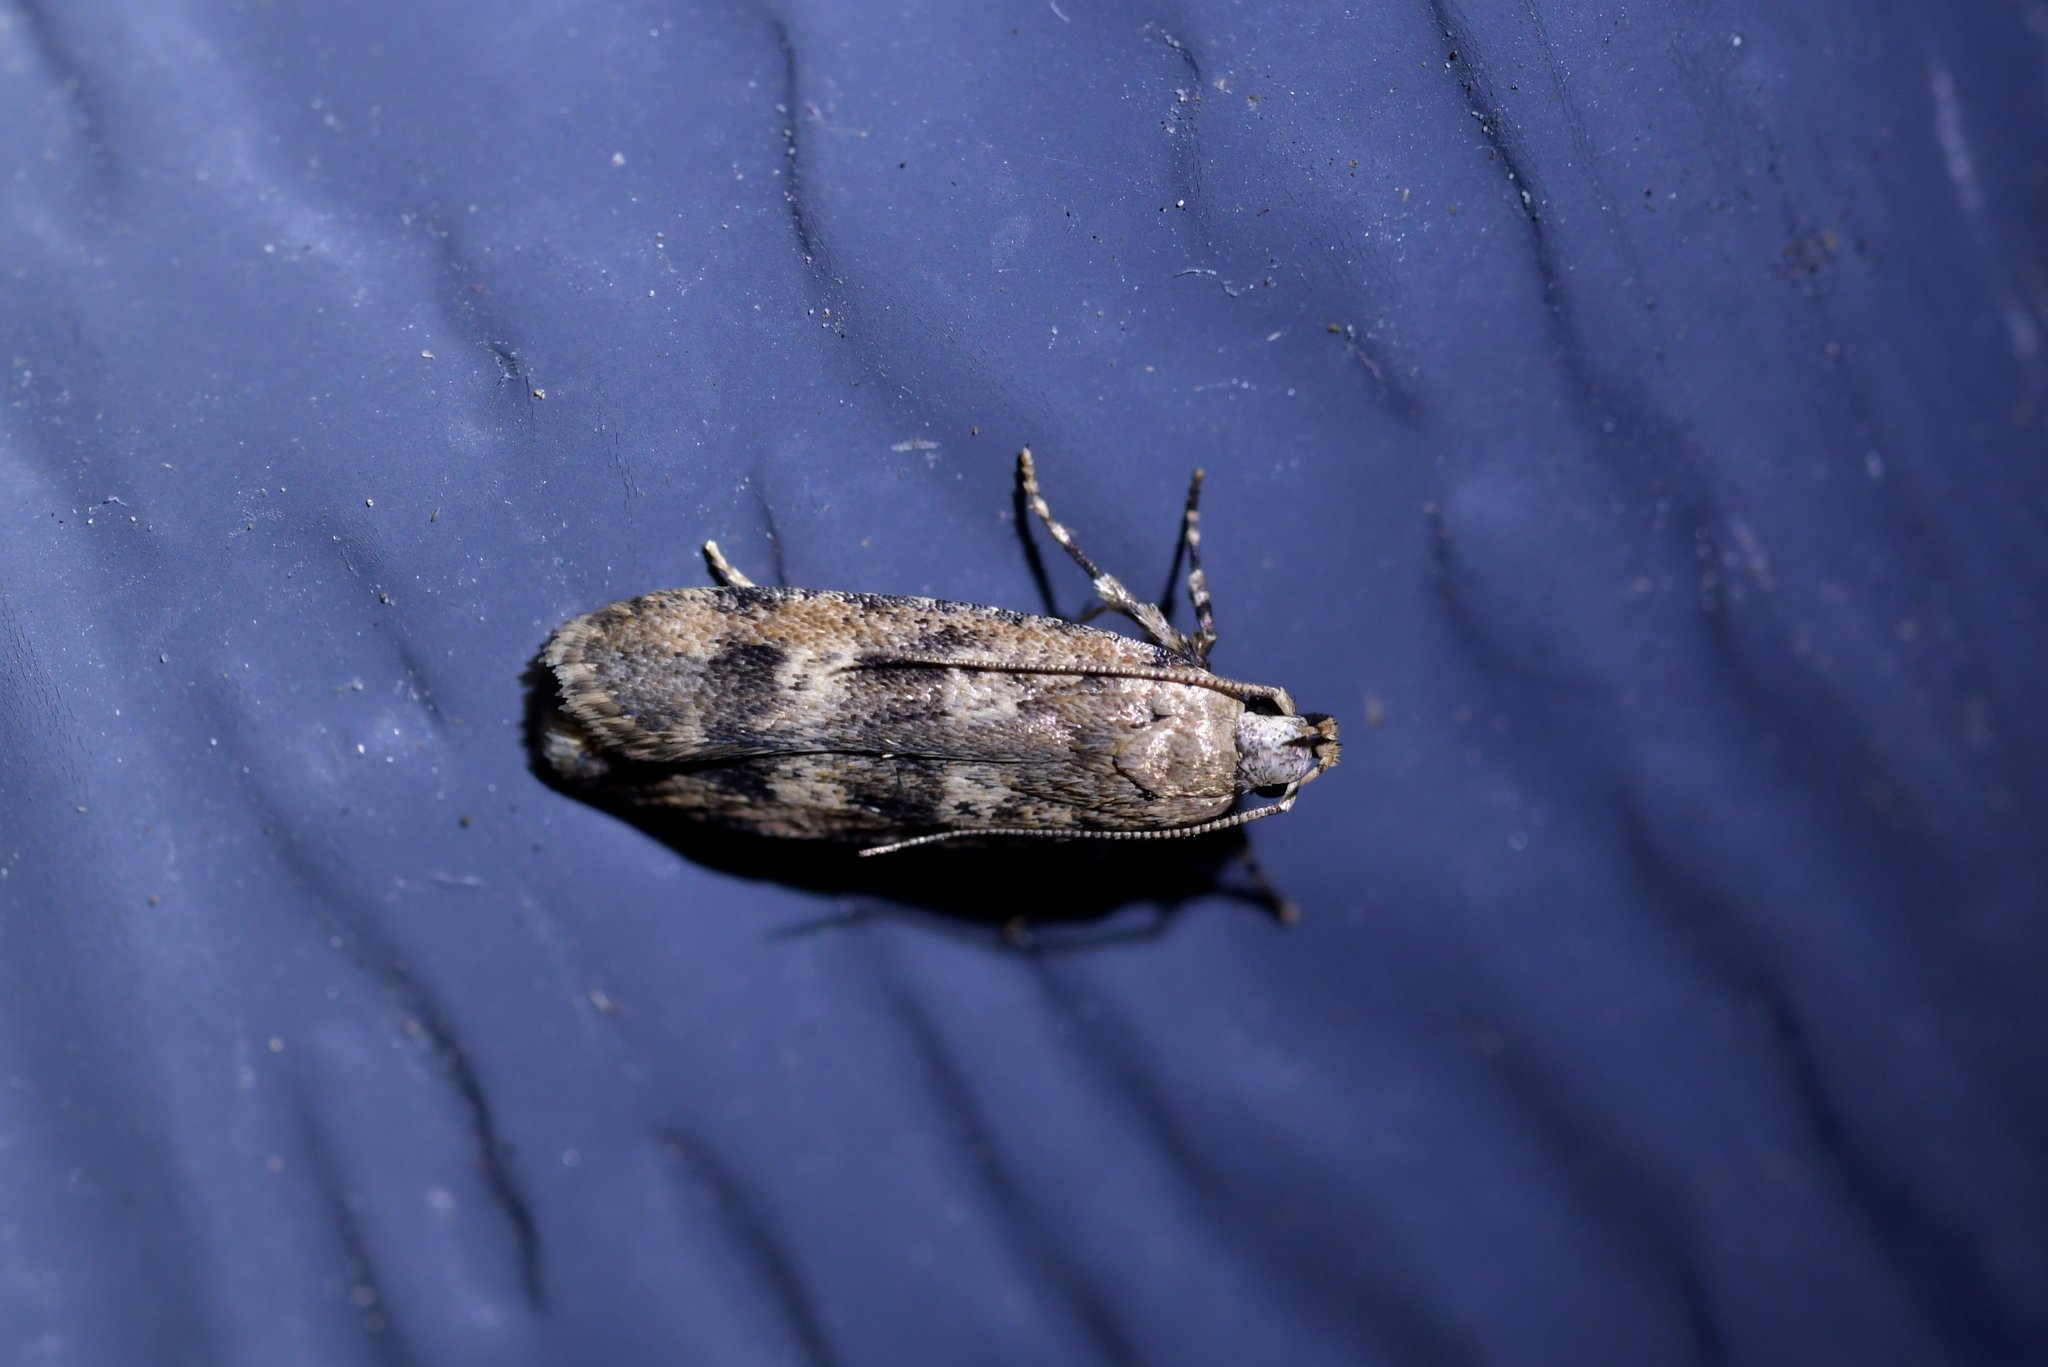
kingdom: Animalia
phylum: Arthropoda
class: Insecta
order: Lepidoptera
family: Gelechiidae
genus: Anisoplaca
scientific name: Anisoplaca cosmia
